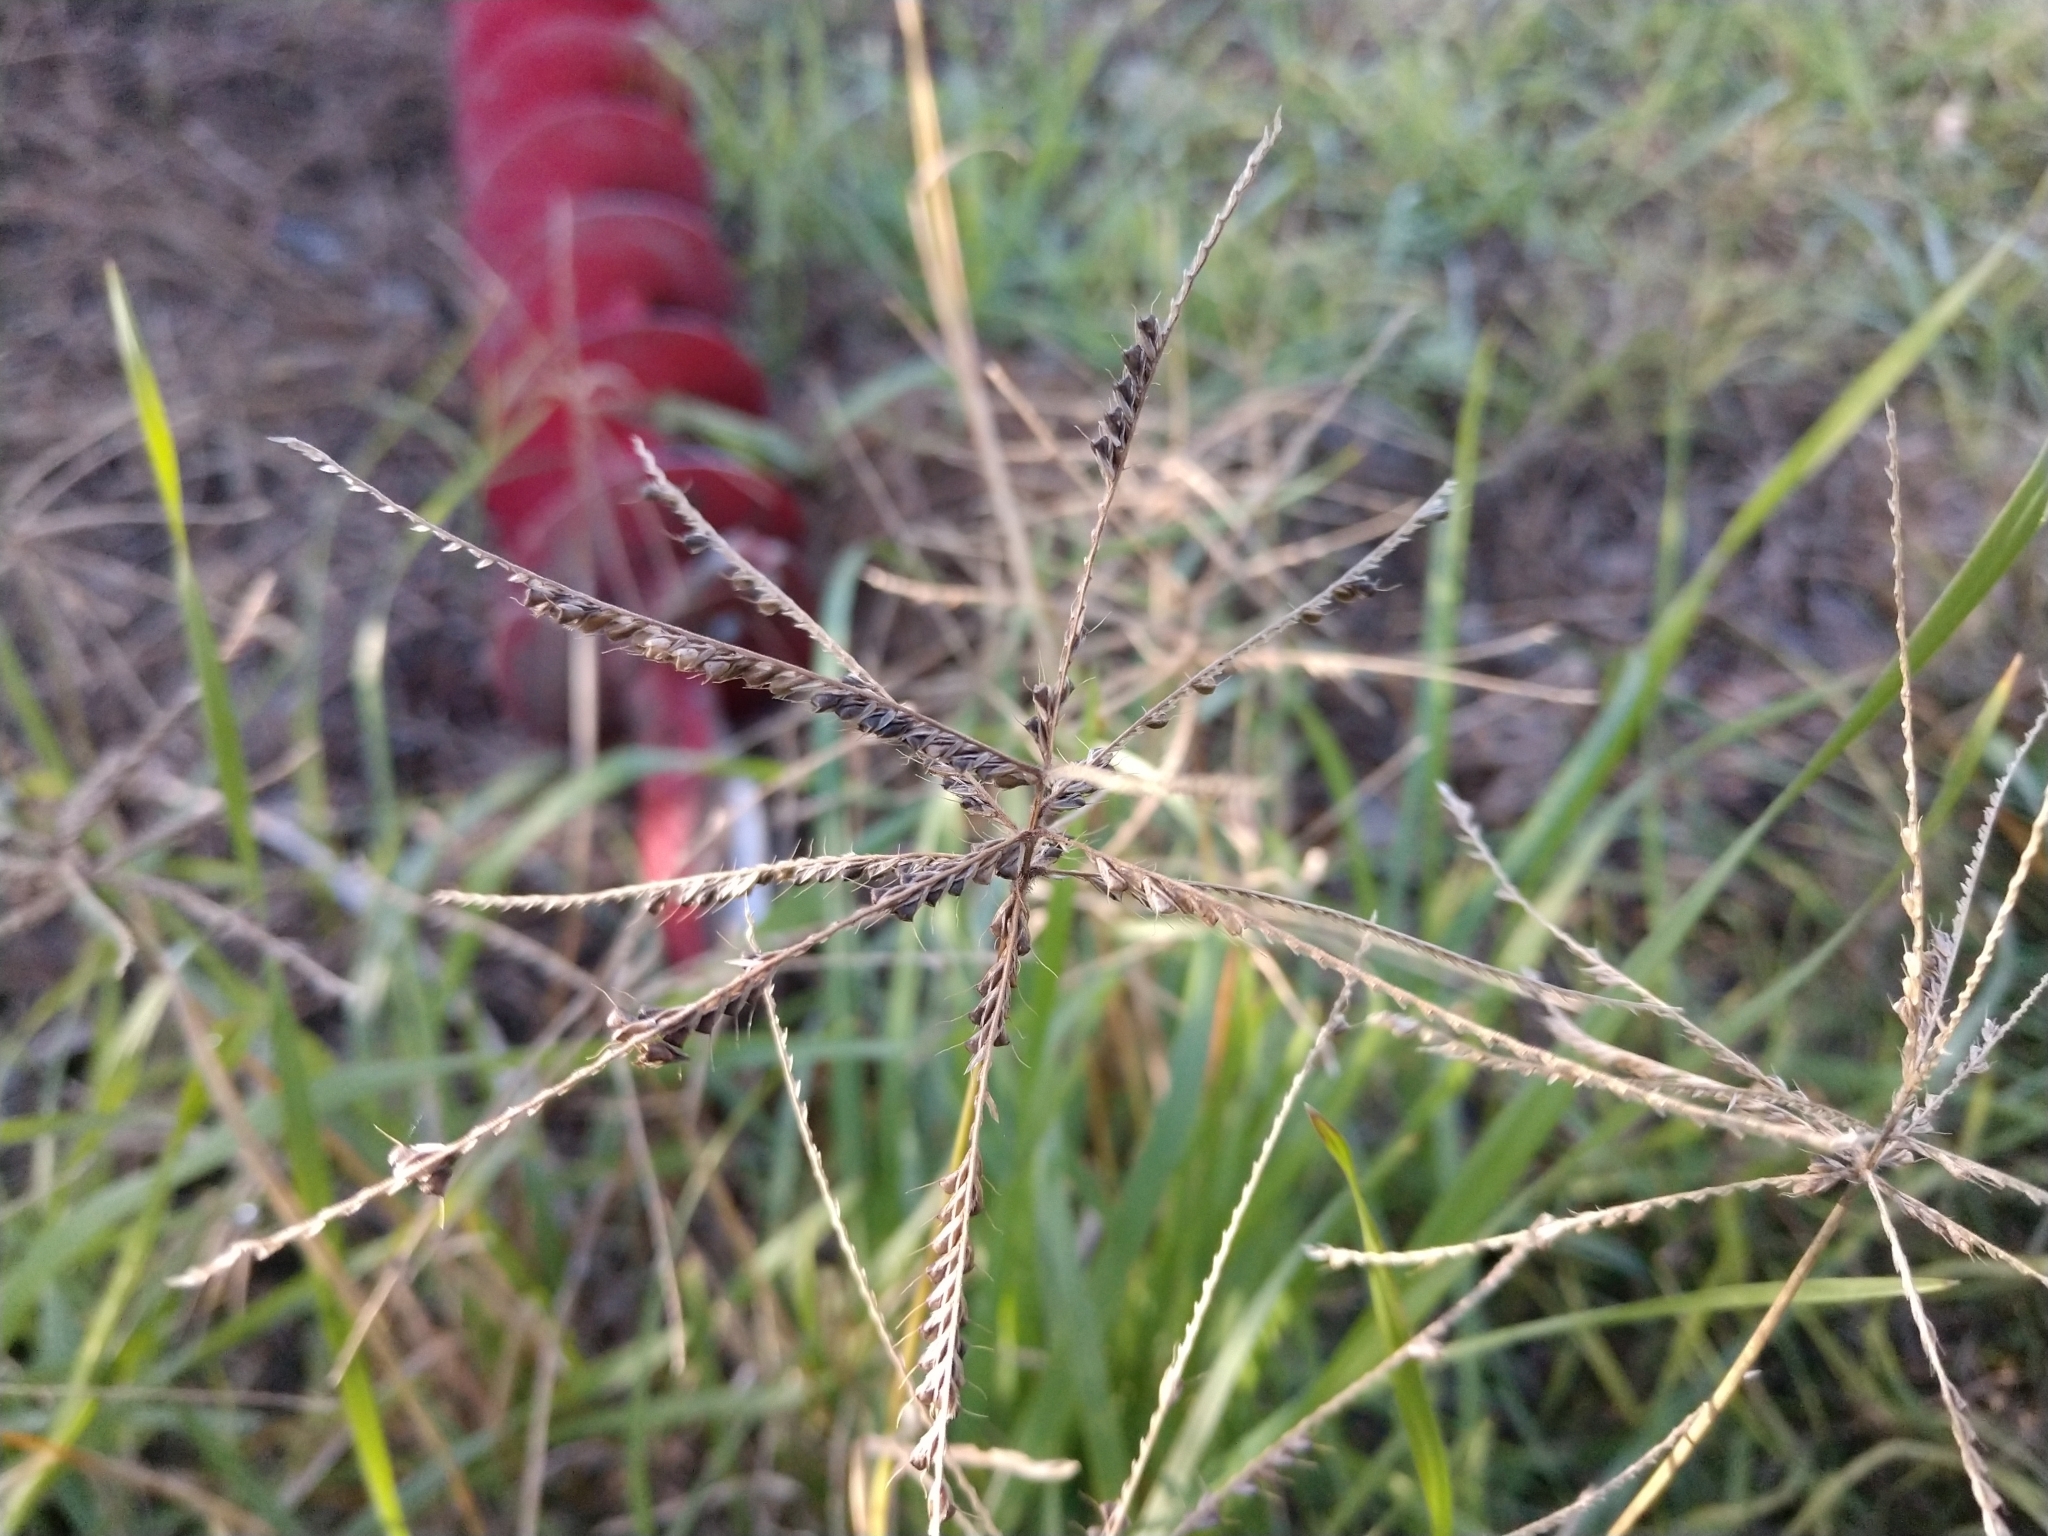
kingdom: Plantae
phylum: Tracheophyta
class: Liliopsida
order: Poales
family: Poaceae
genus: Chloris
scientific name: Chloris subdolichostachya
